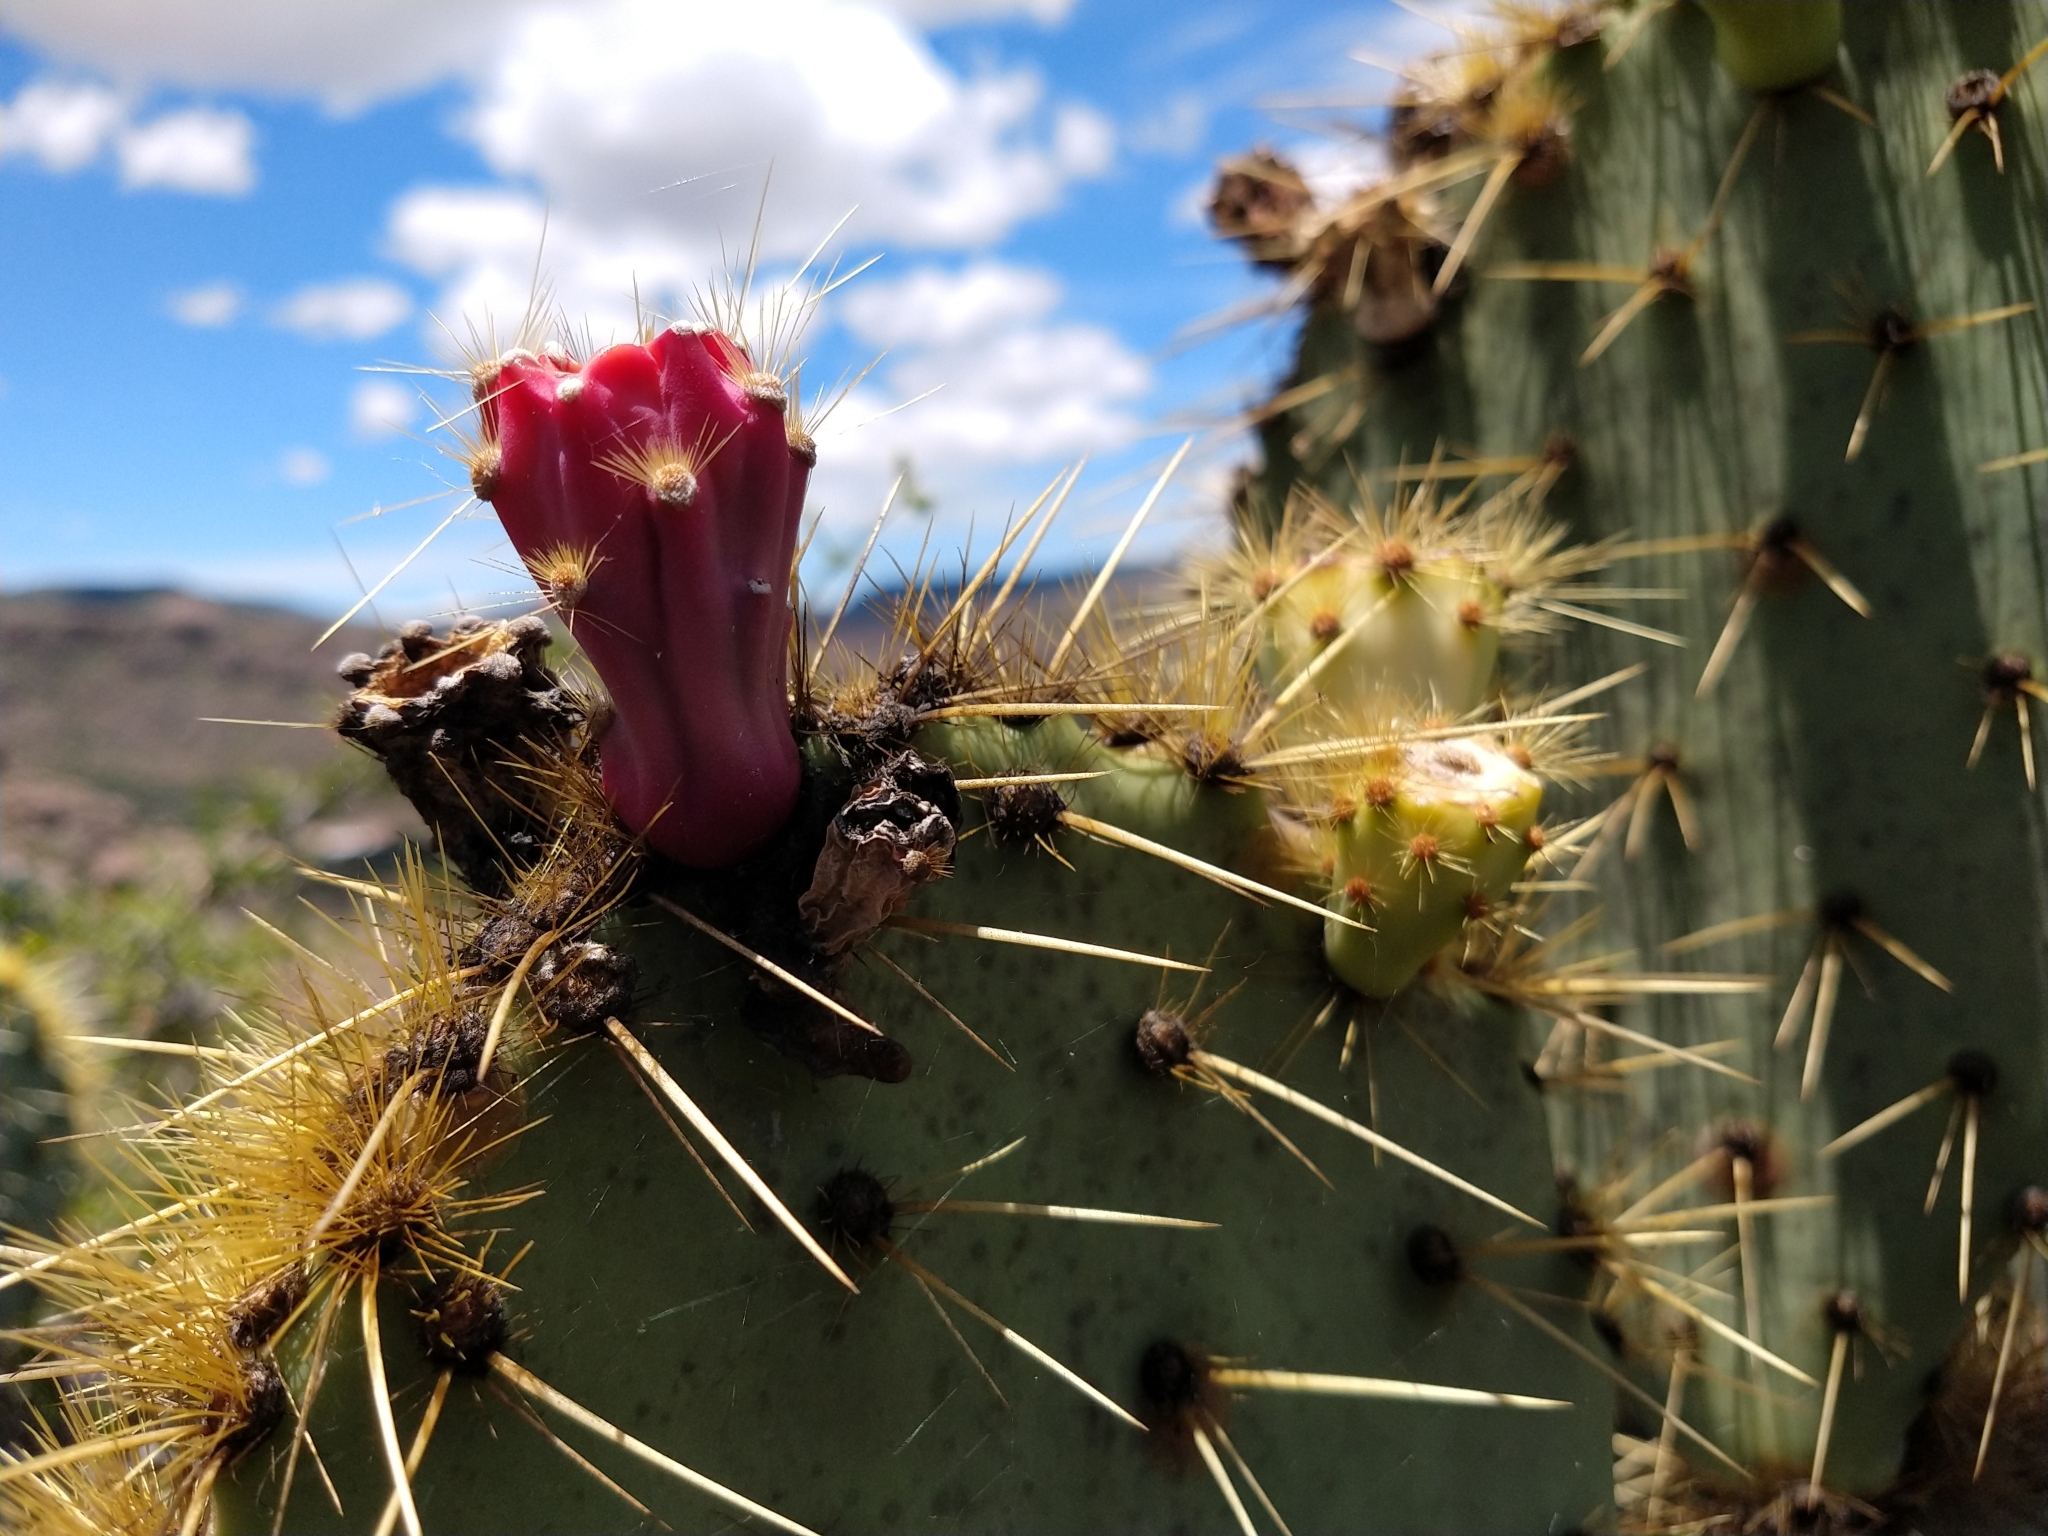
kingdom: Plantae
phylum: Tracheophyta
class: Magnoliopsida
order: Caryophyllales
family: Cactaceae
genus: Opuntia
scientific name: Opuntia engelmannii
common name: Cactus-apple
